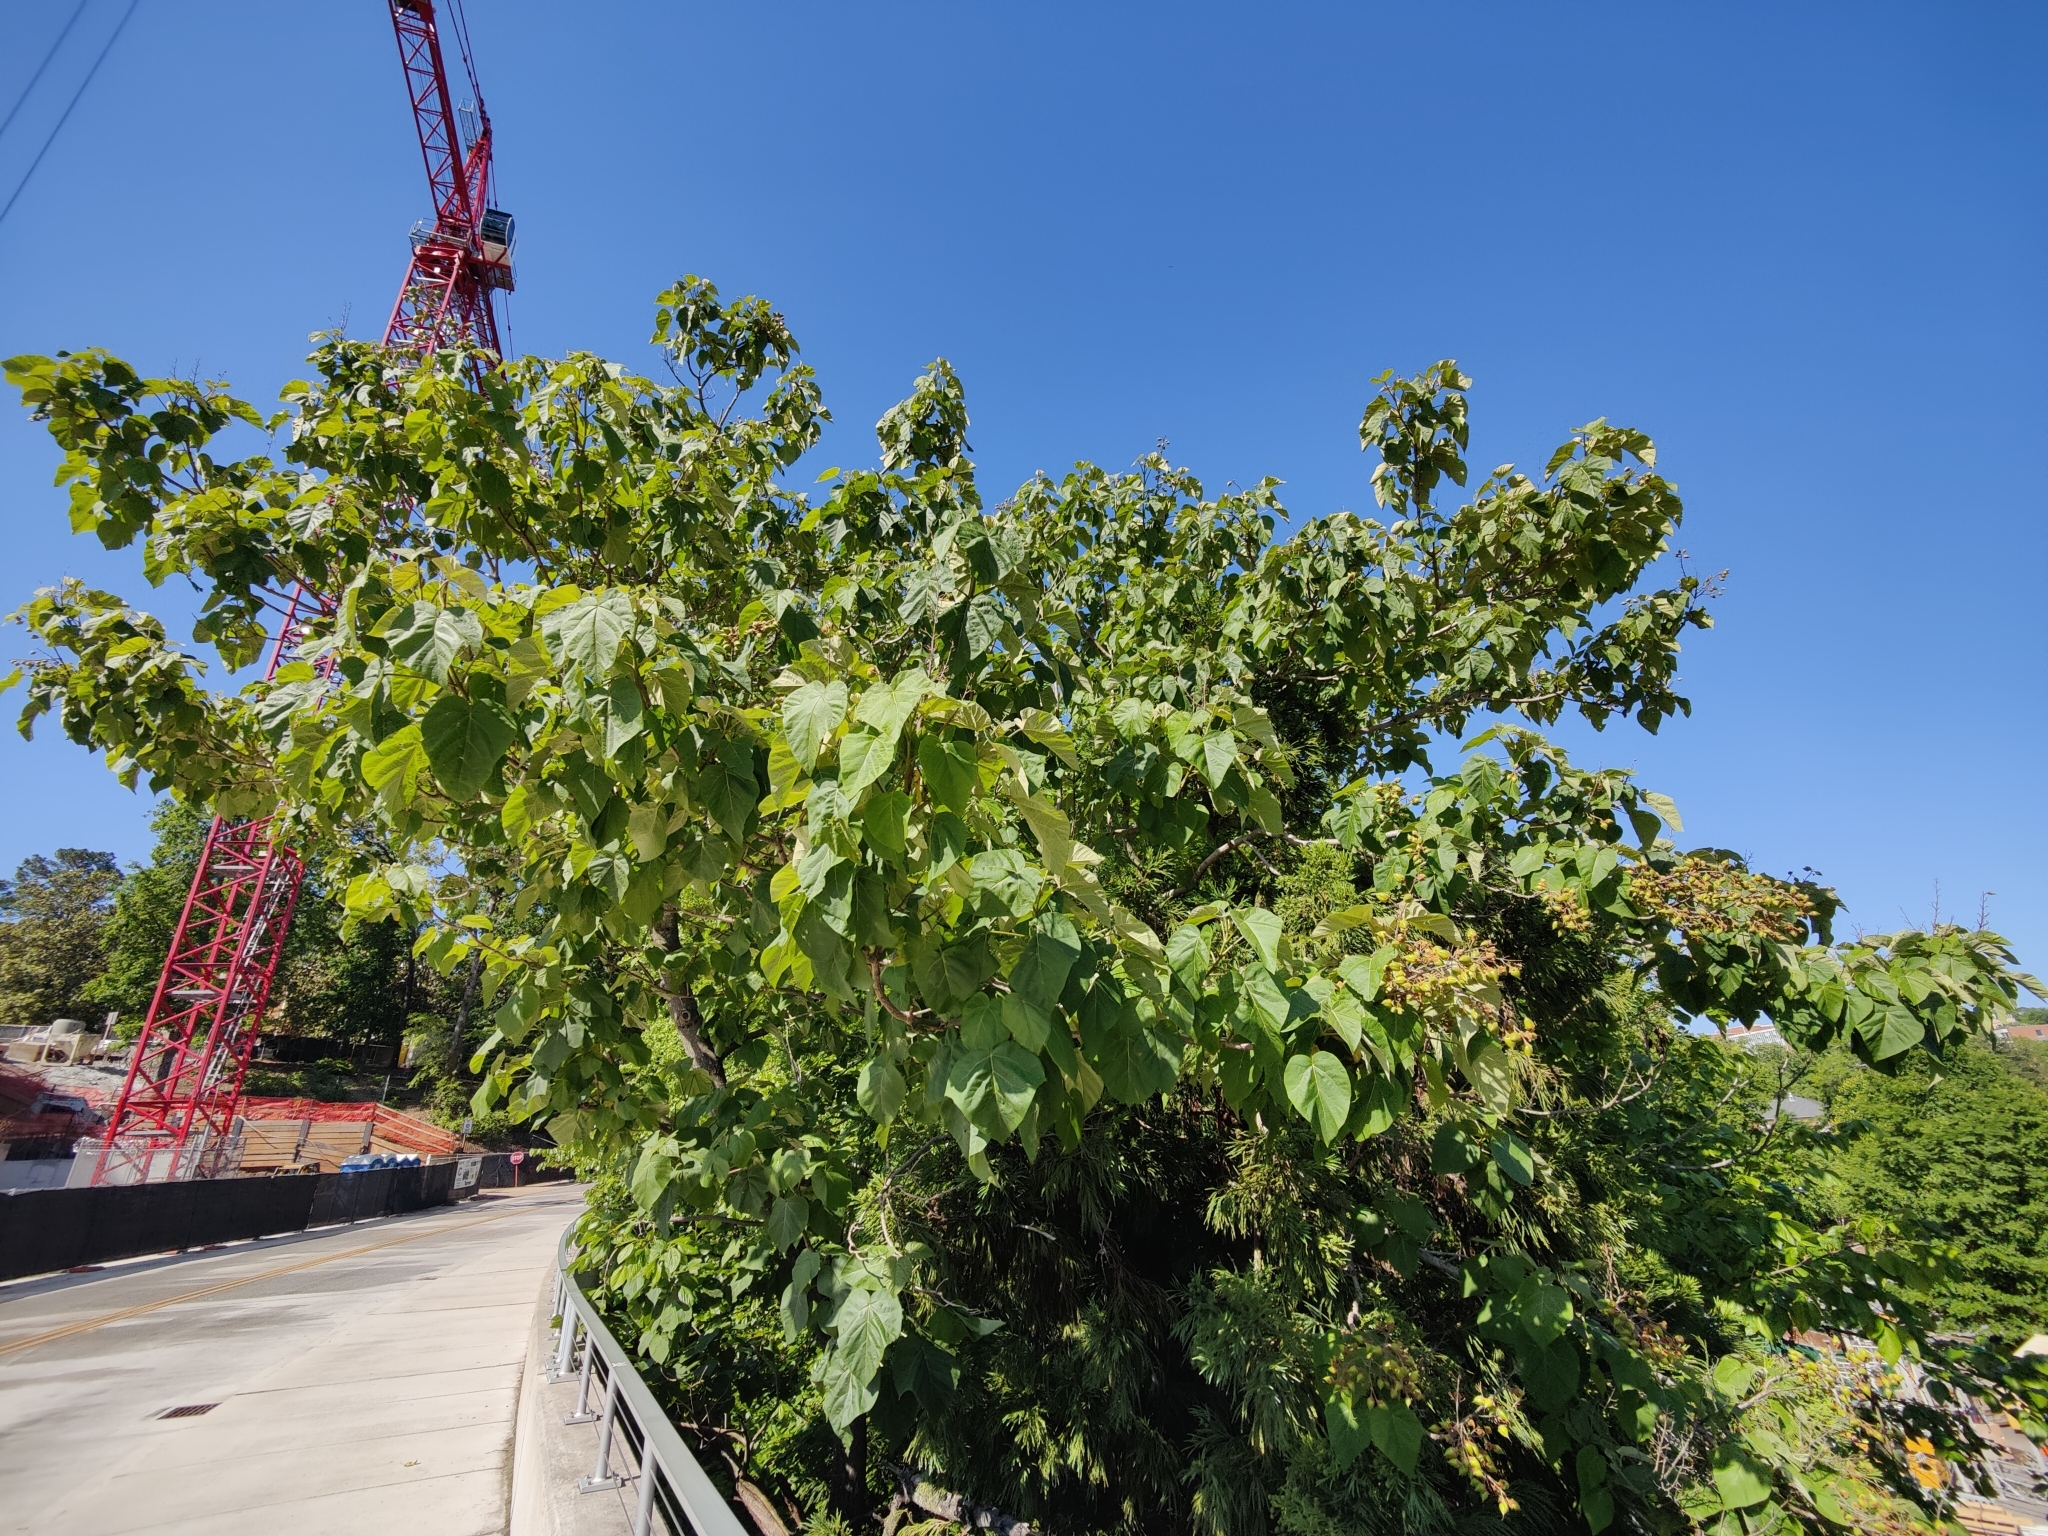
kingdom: Plantae
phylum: Tracheophyta
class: Magnoliopsida
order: Lamiales
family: Paulowniaceae
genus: Paulownia
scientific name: Paulownia tomentosa
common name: Foxglove-tree
